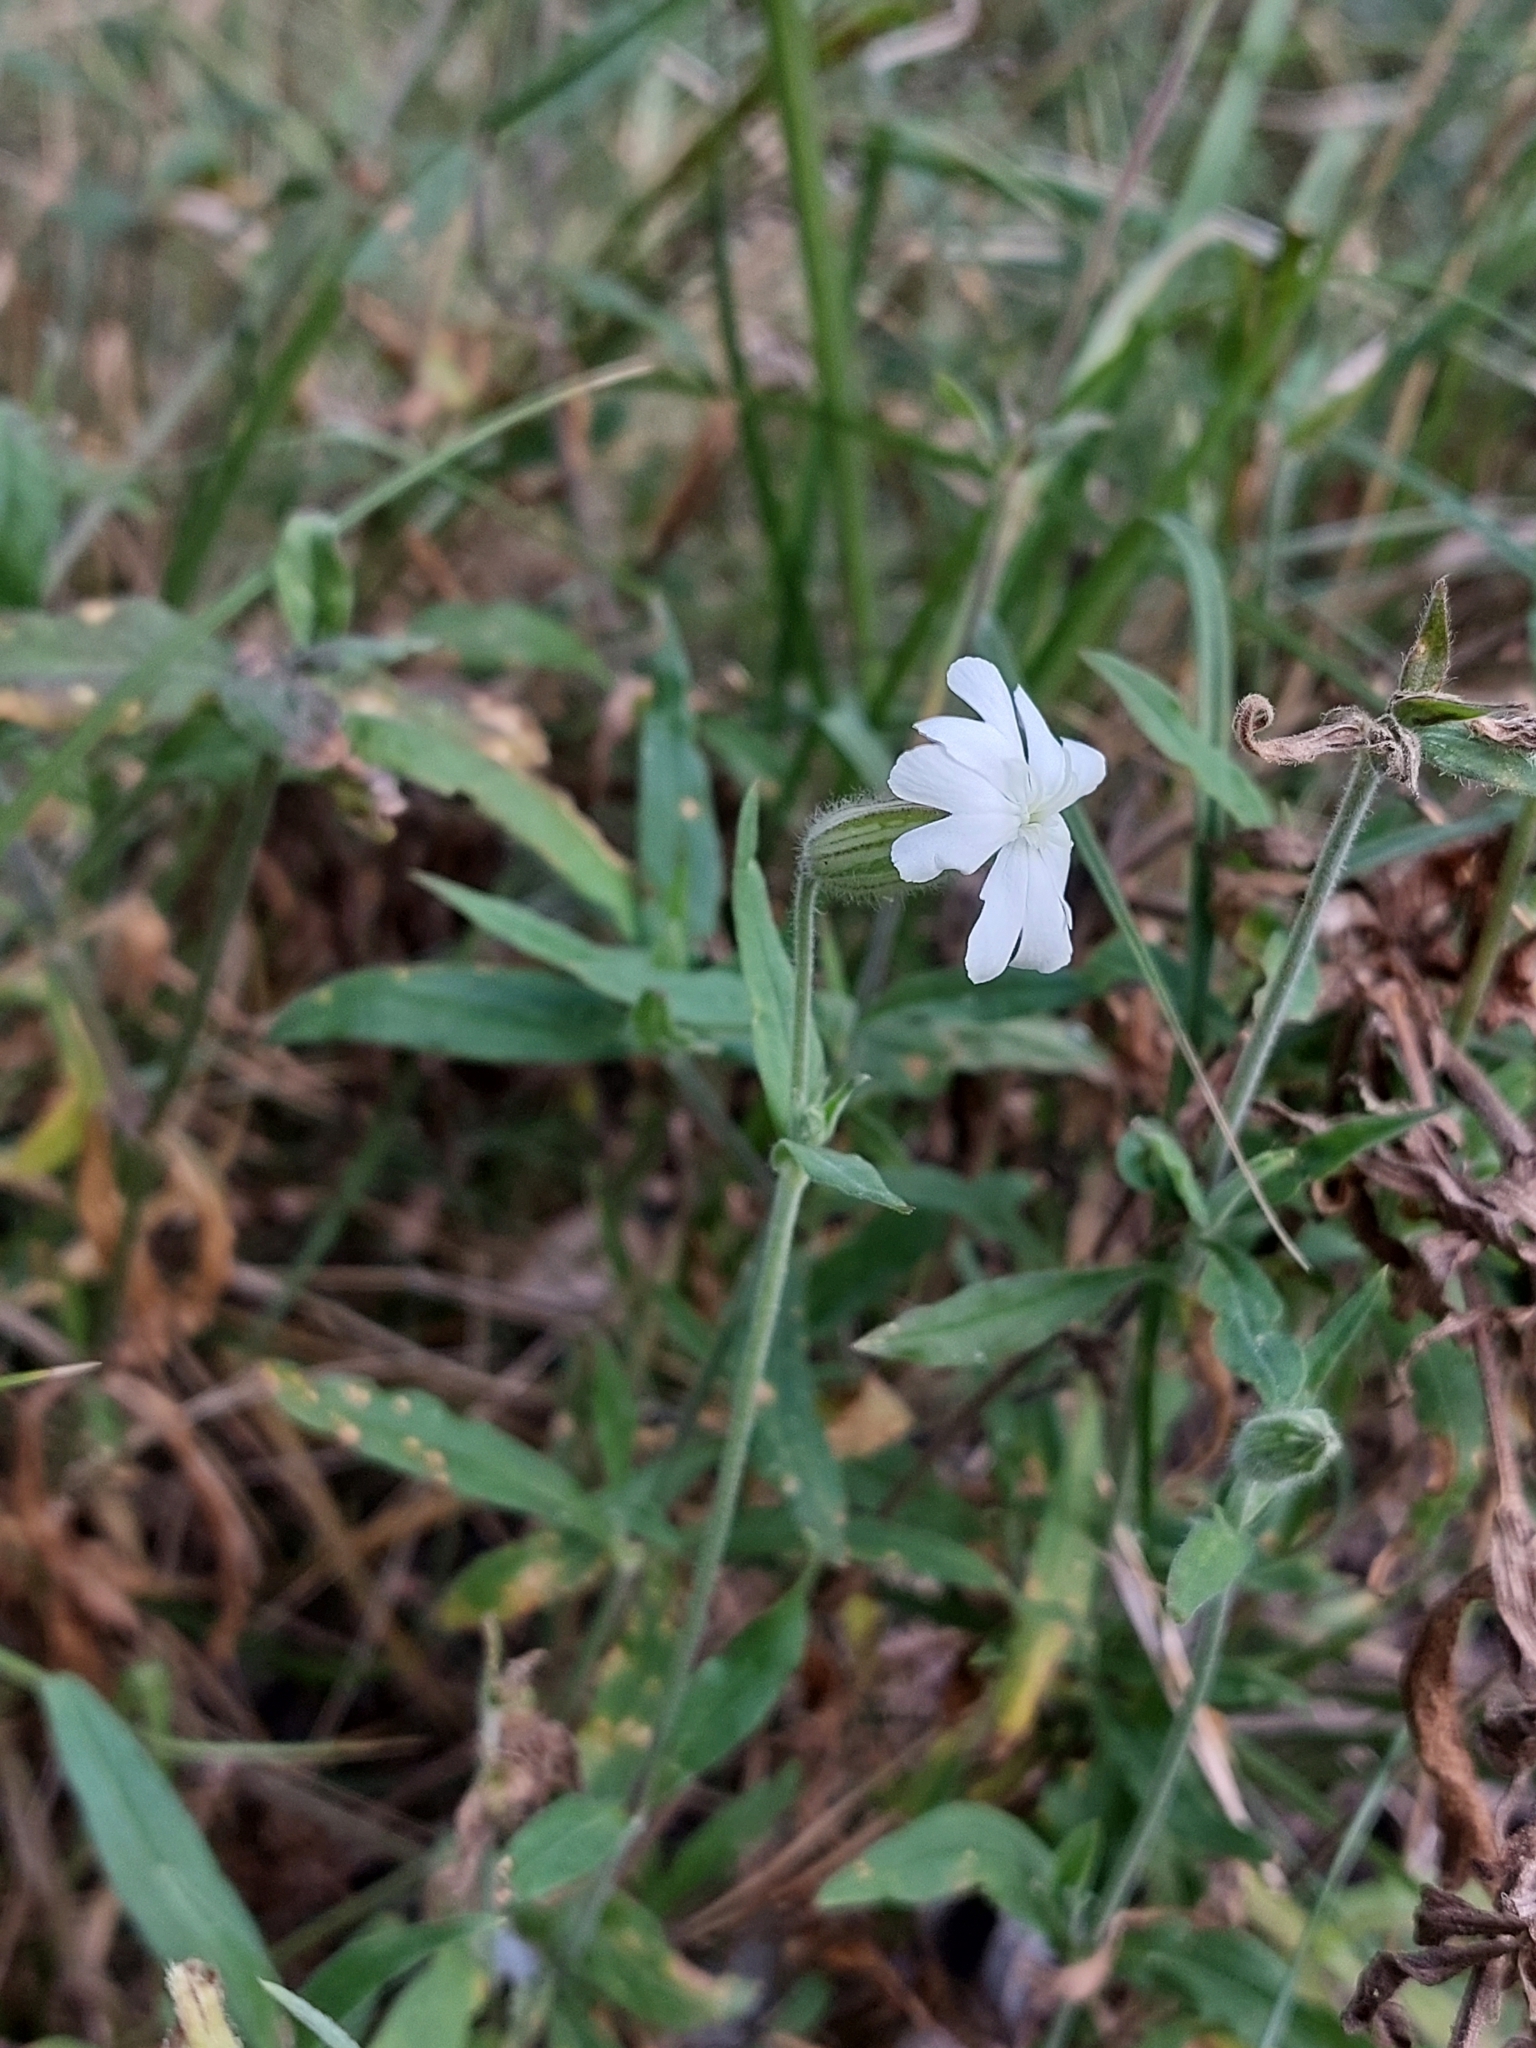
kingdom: Plantae
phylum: Tracheophyta
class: Magnoliopsida
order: Caryophyllales
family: Caryophyllaceae
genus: Silene
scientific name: Silene latifolia
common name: White campion
